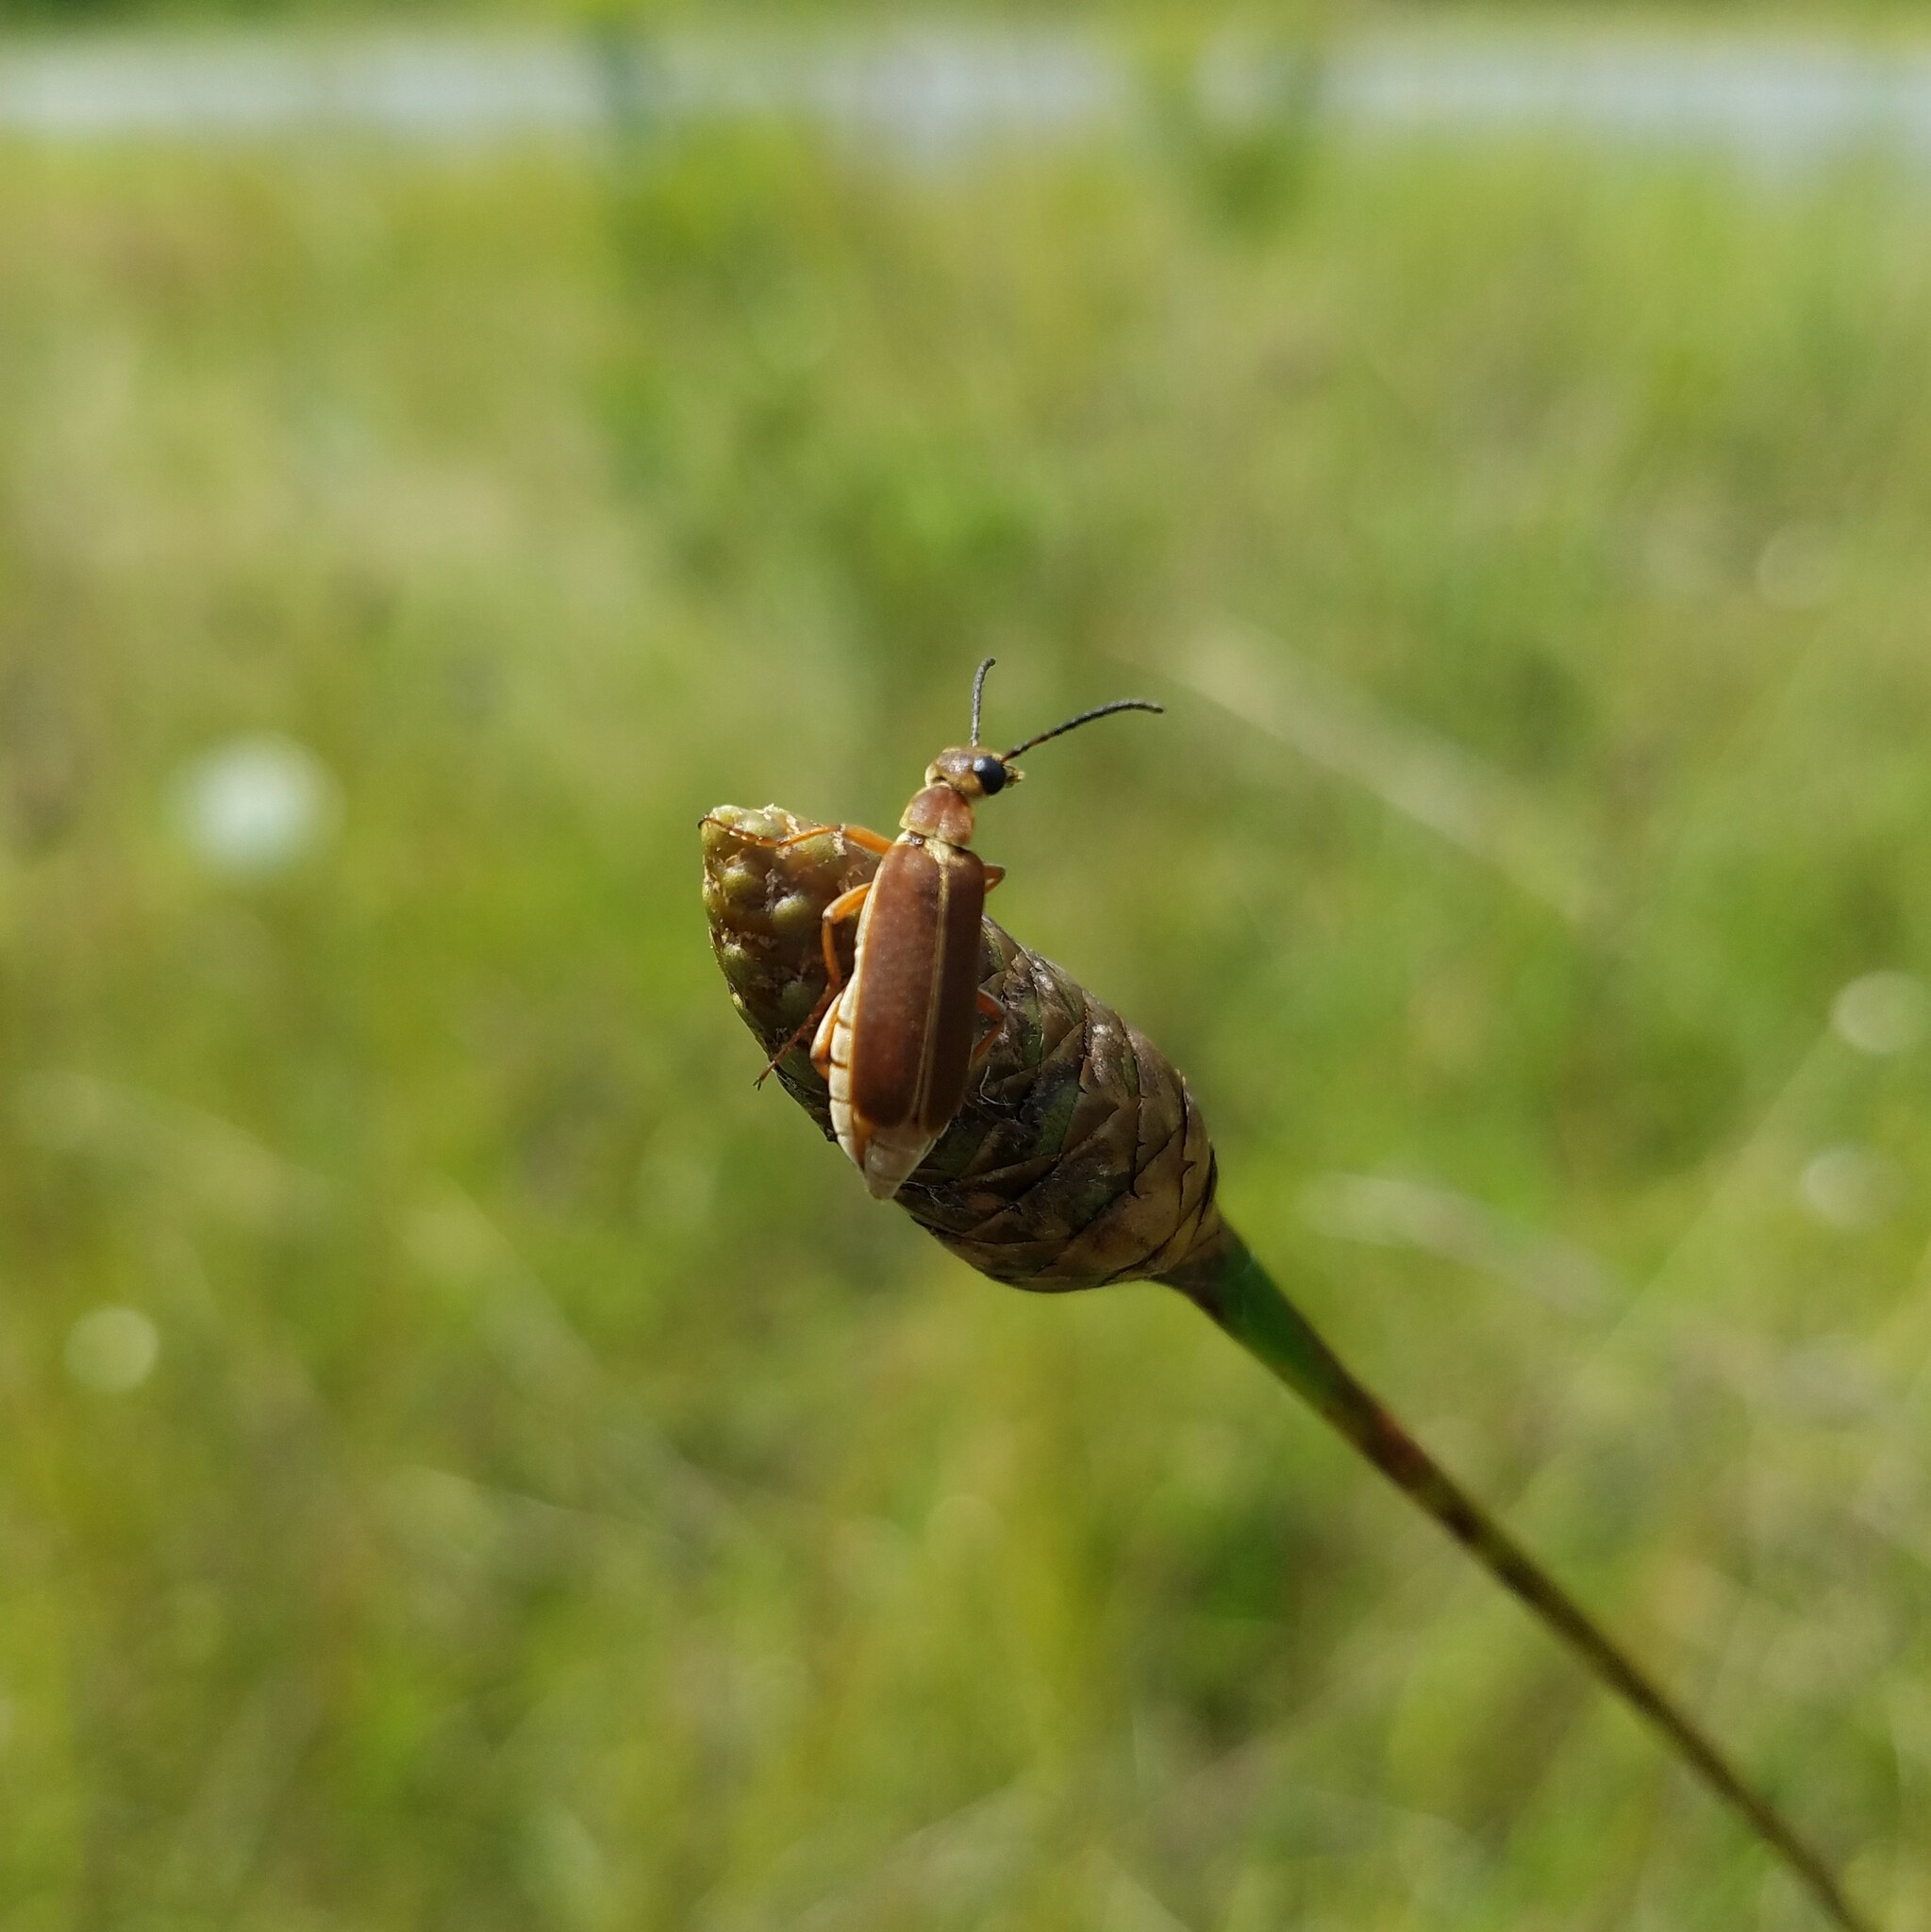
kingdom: Animalia
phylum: Arthropoda
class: Insecta
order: Coleoptera
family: Meloidae
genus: Epicauta
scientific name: Epicauta batesii
